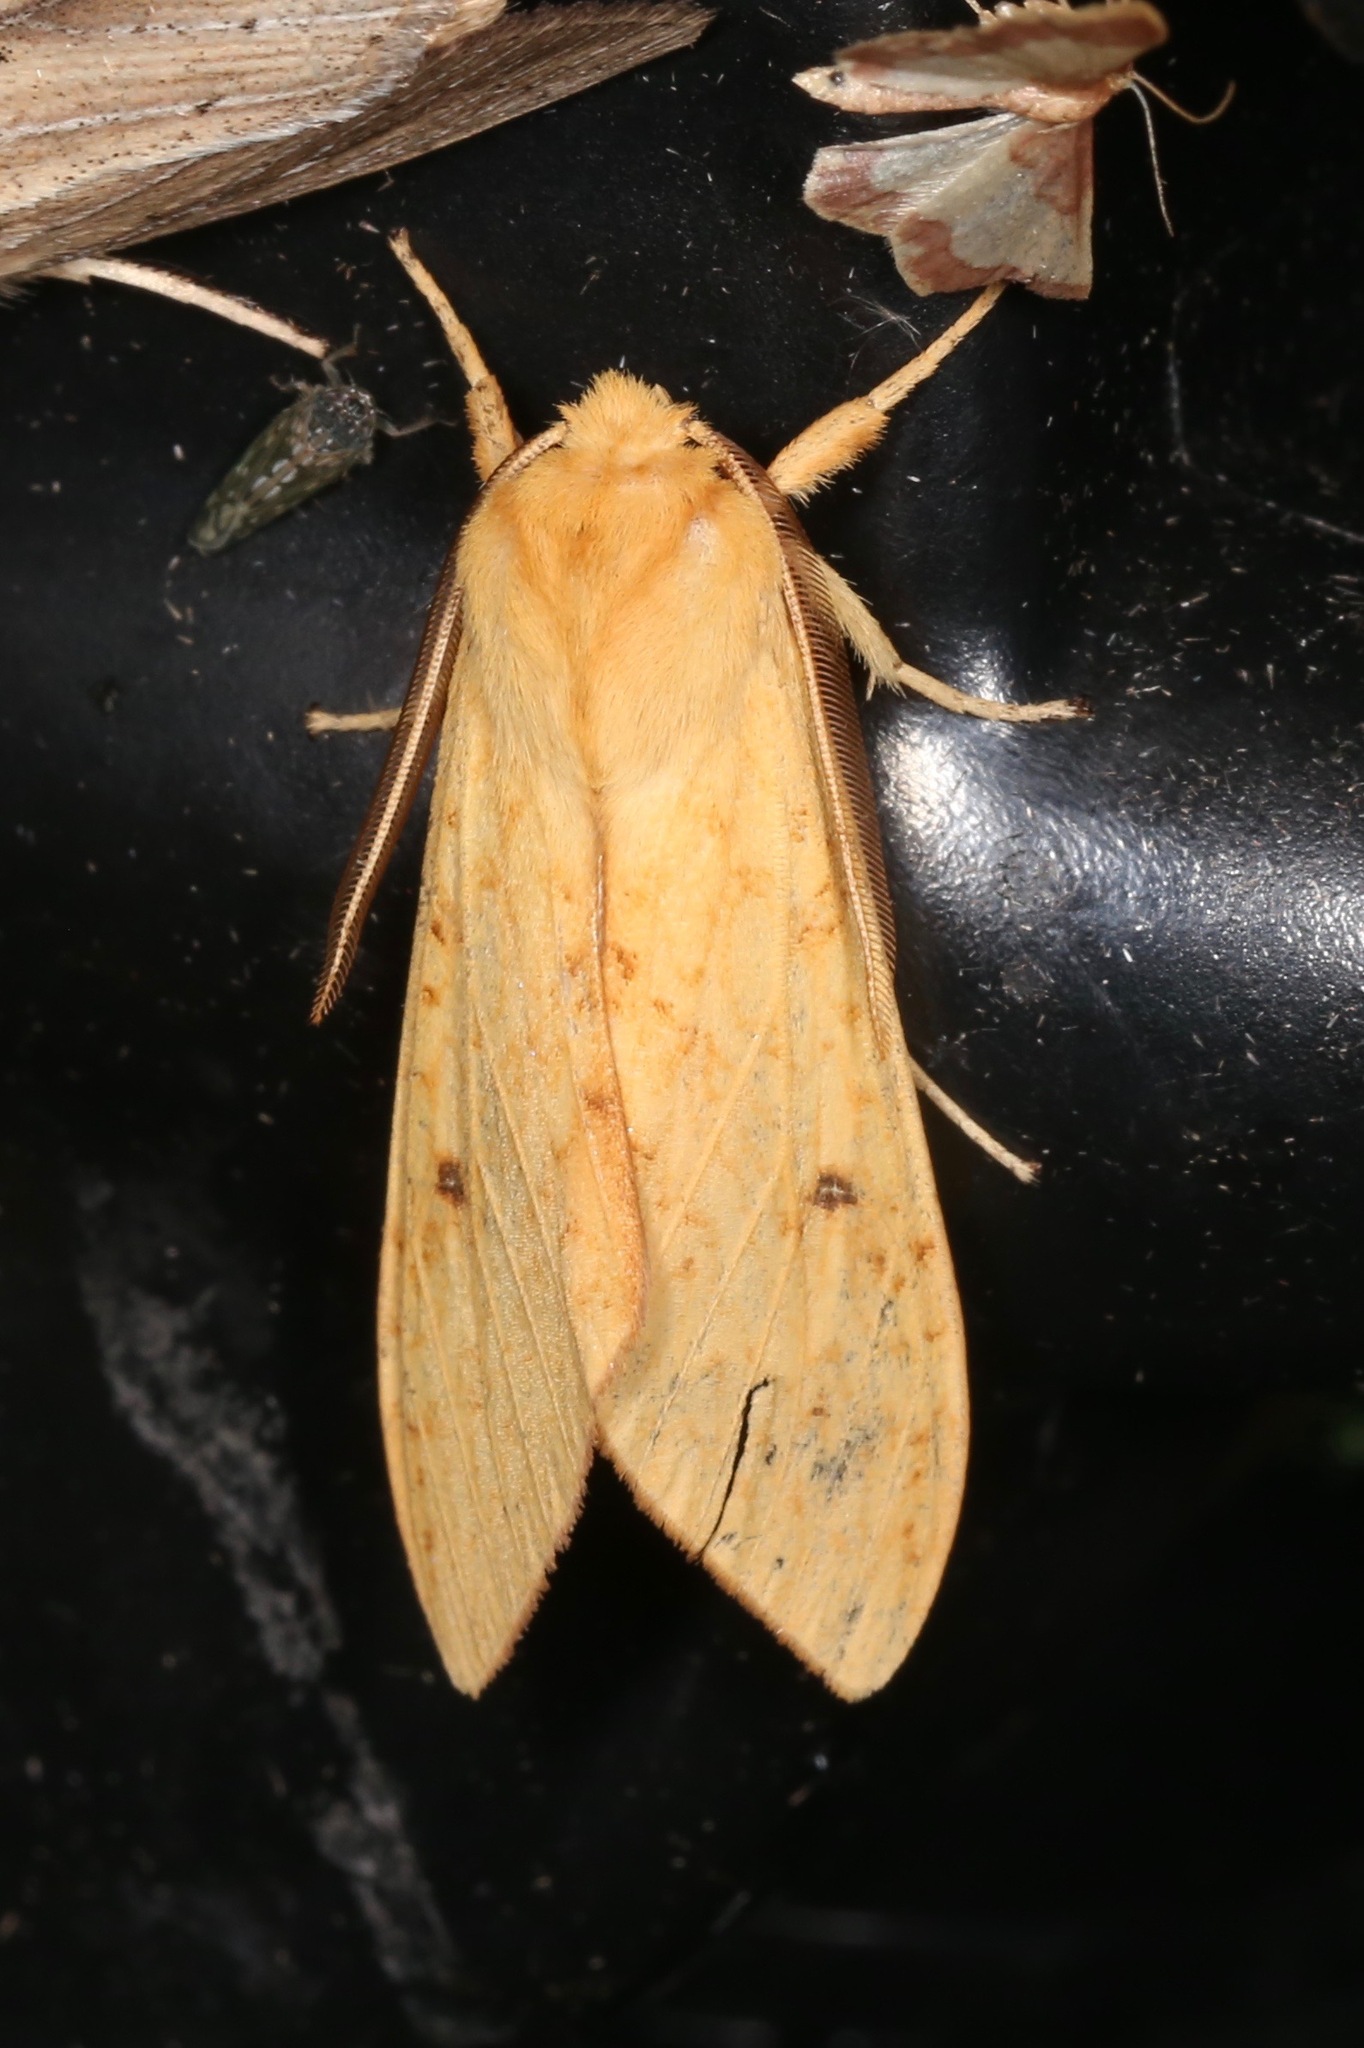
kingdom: Animalia
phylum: Arthropoda
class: Insecta
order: Lepidoptera
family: Erebidae
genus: Lophocampa
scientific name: Lophocampa pura
